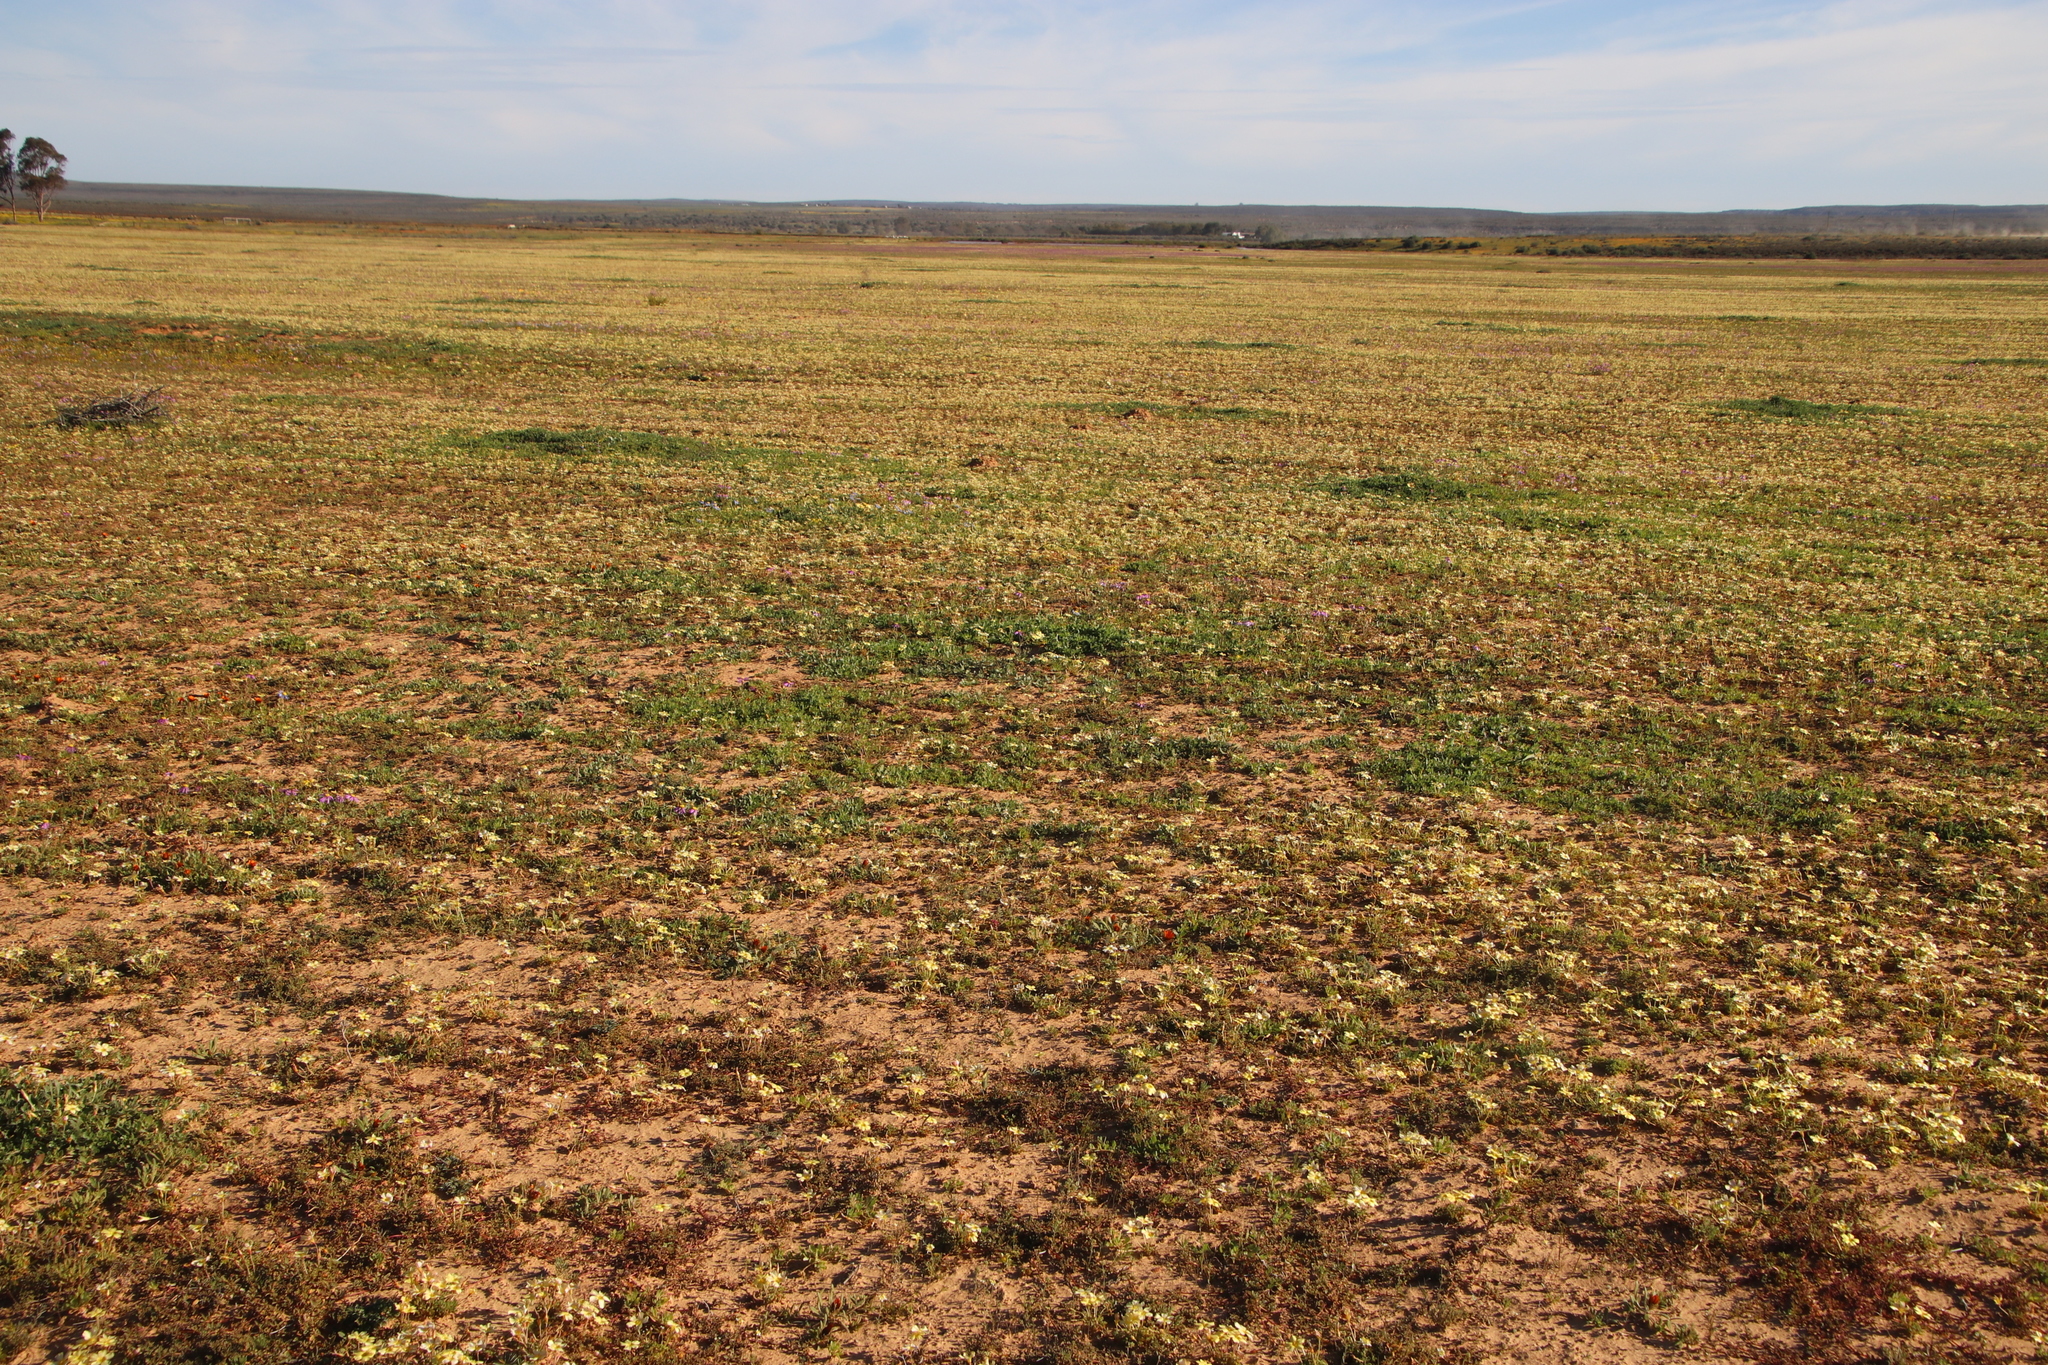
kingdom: Plantae
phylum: Tracheophyta
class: Magnoliopsida
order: Oxalidales
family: Oxalidaceae
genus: Oxalis
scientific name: Oxalis obtusa
